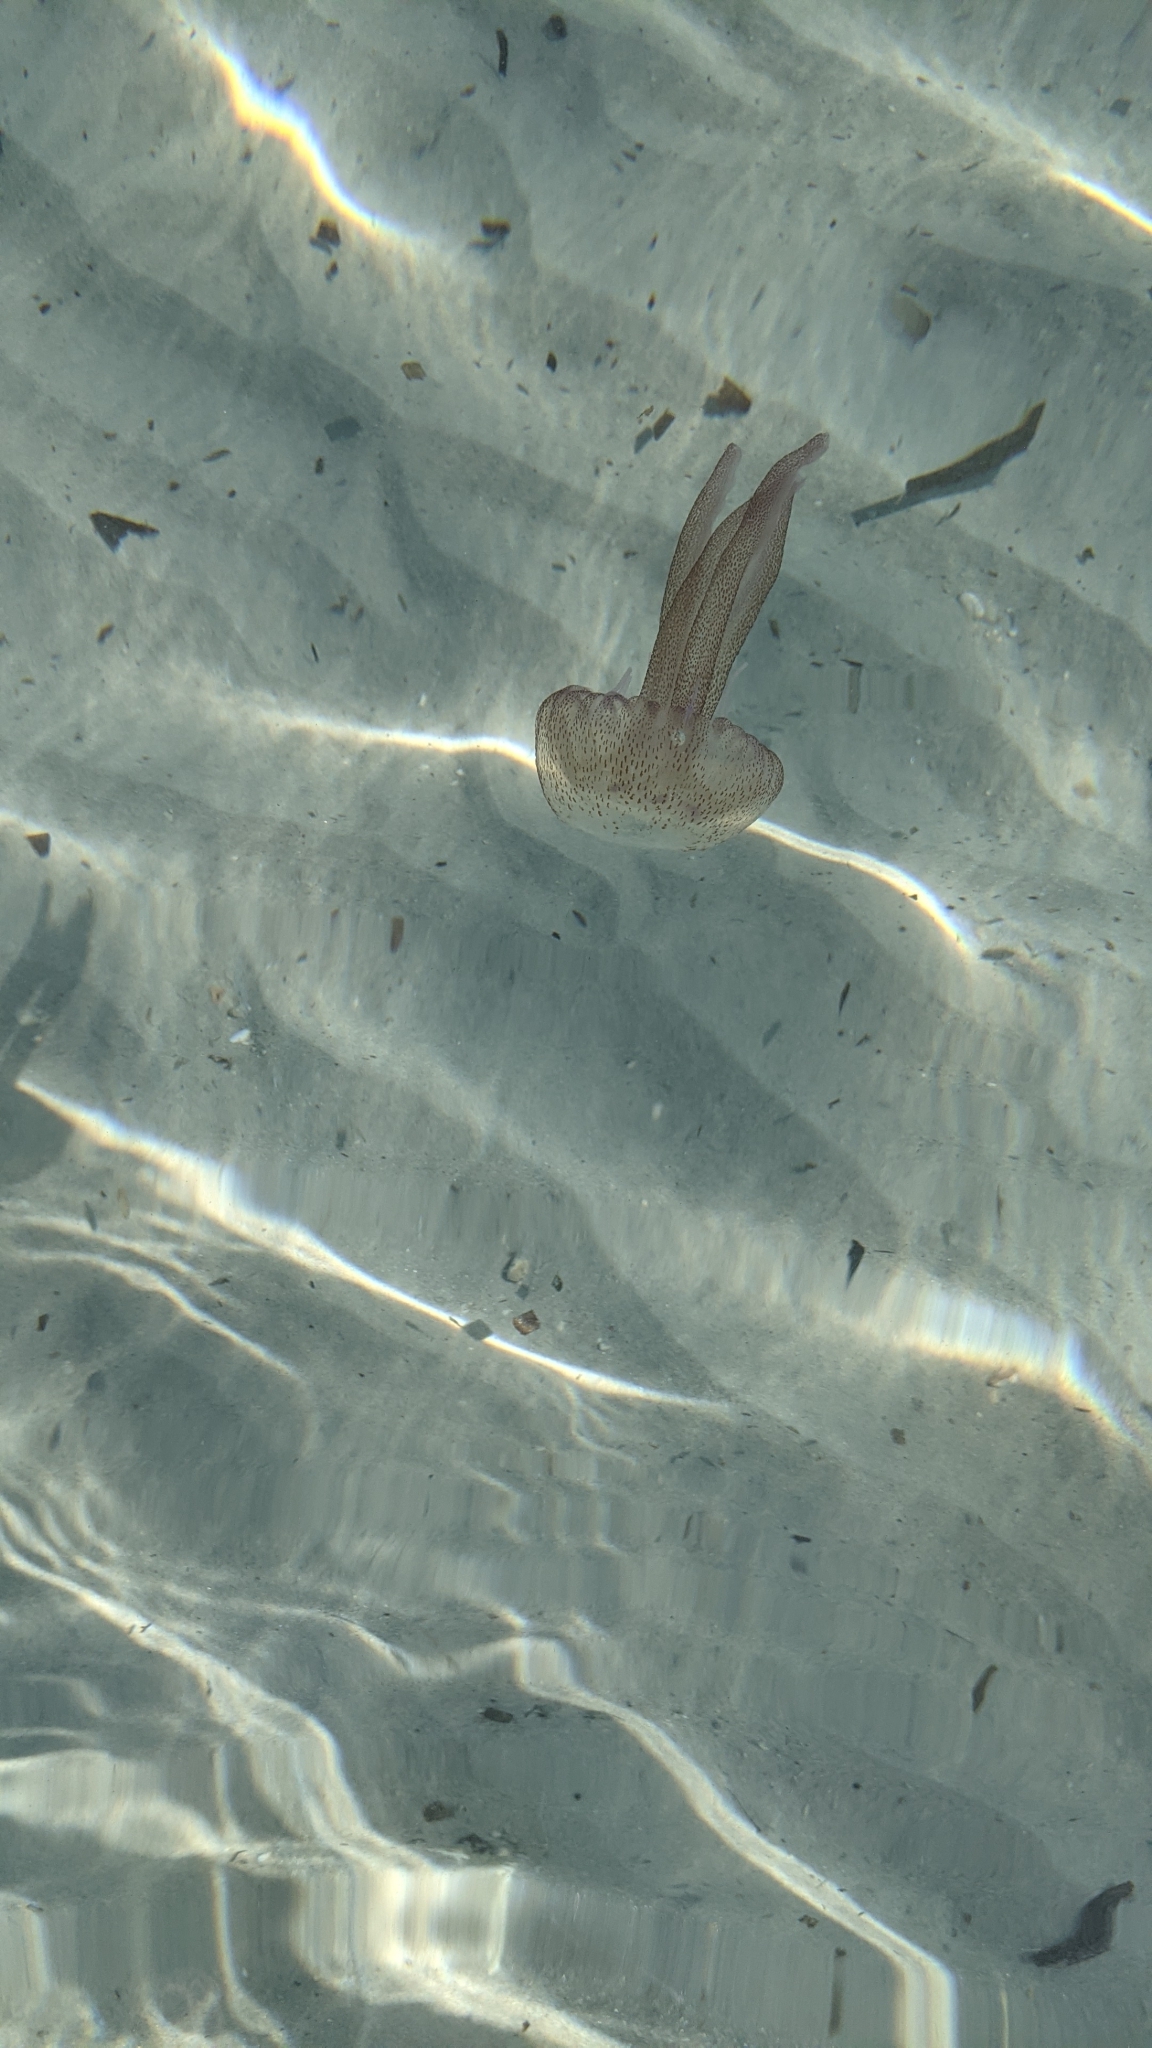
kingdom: Animalia
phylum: Cnidaria
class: Scyphozoa
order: Semaeostomeae
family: Pelagiidae
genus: Pelagia
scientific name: Pelagia noctiluca
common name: Mauve stinger
